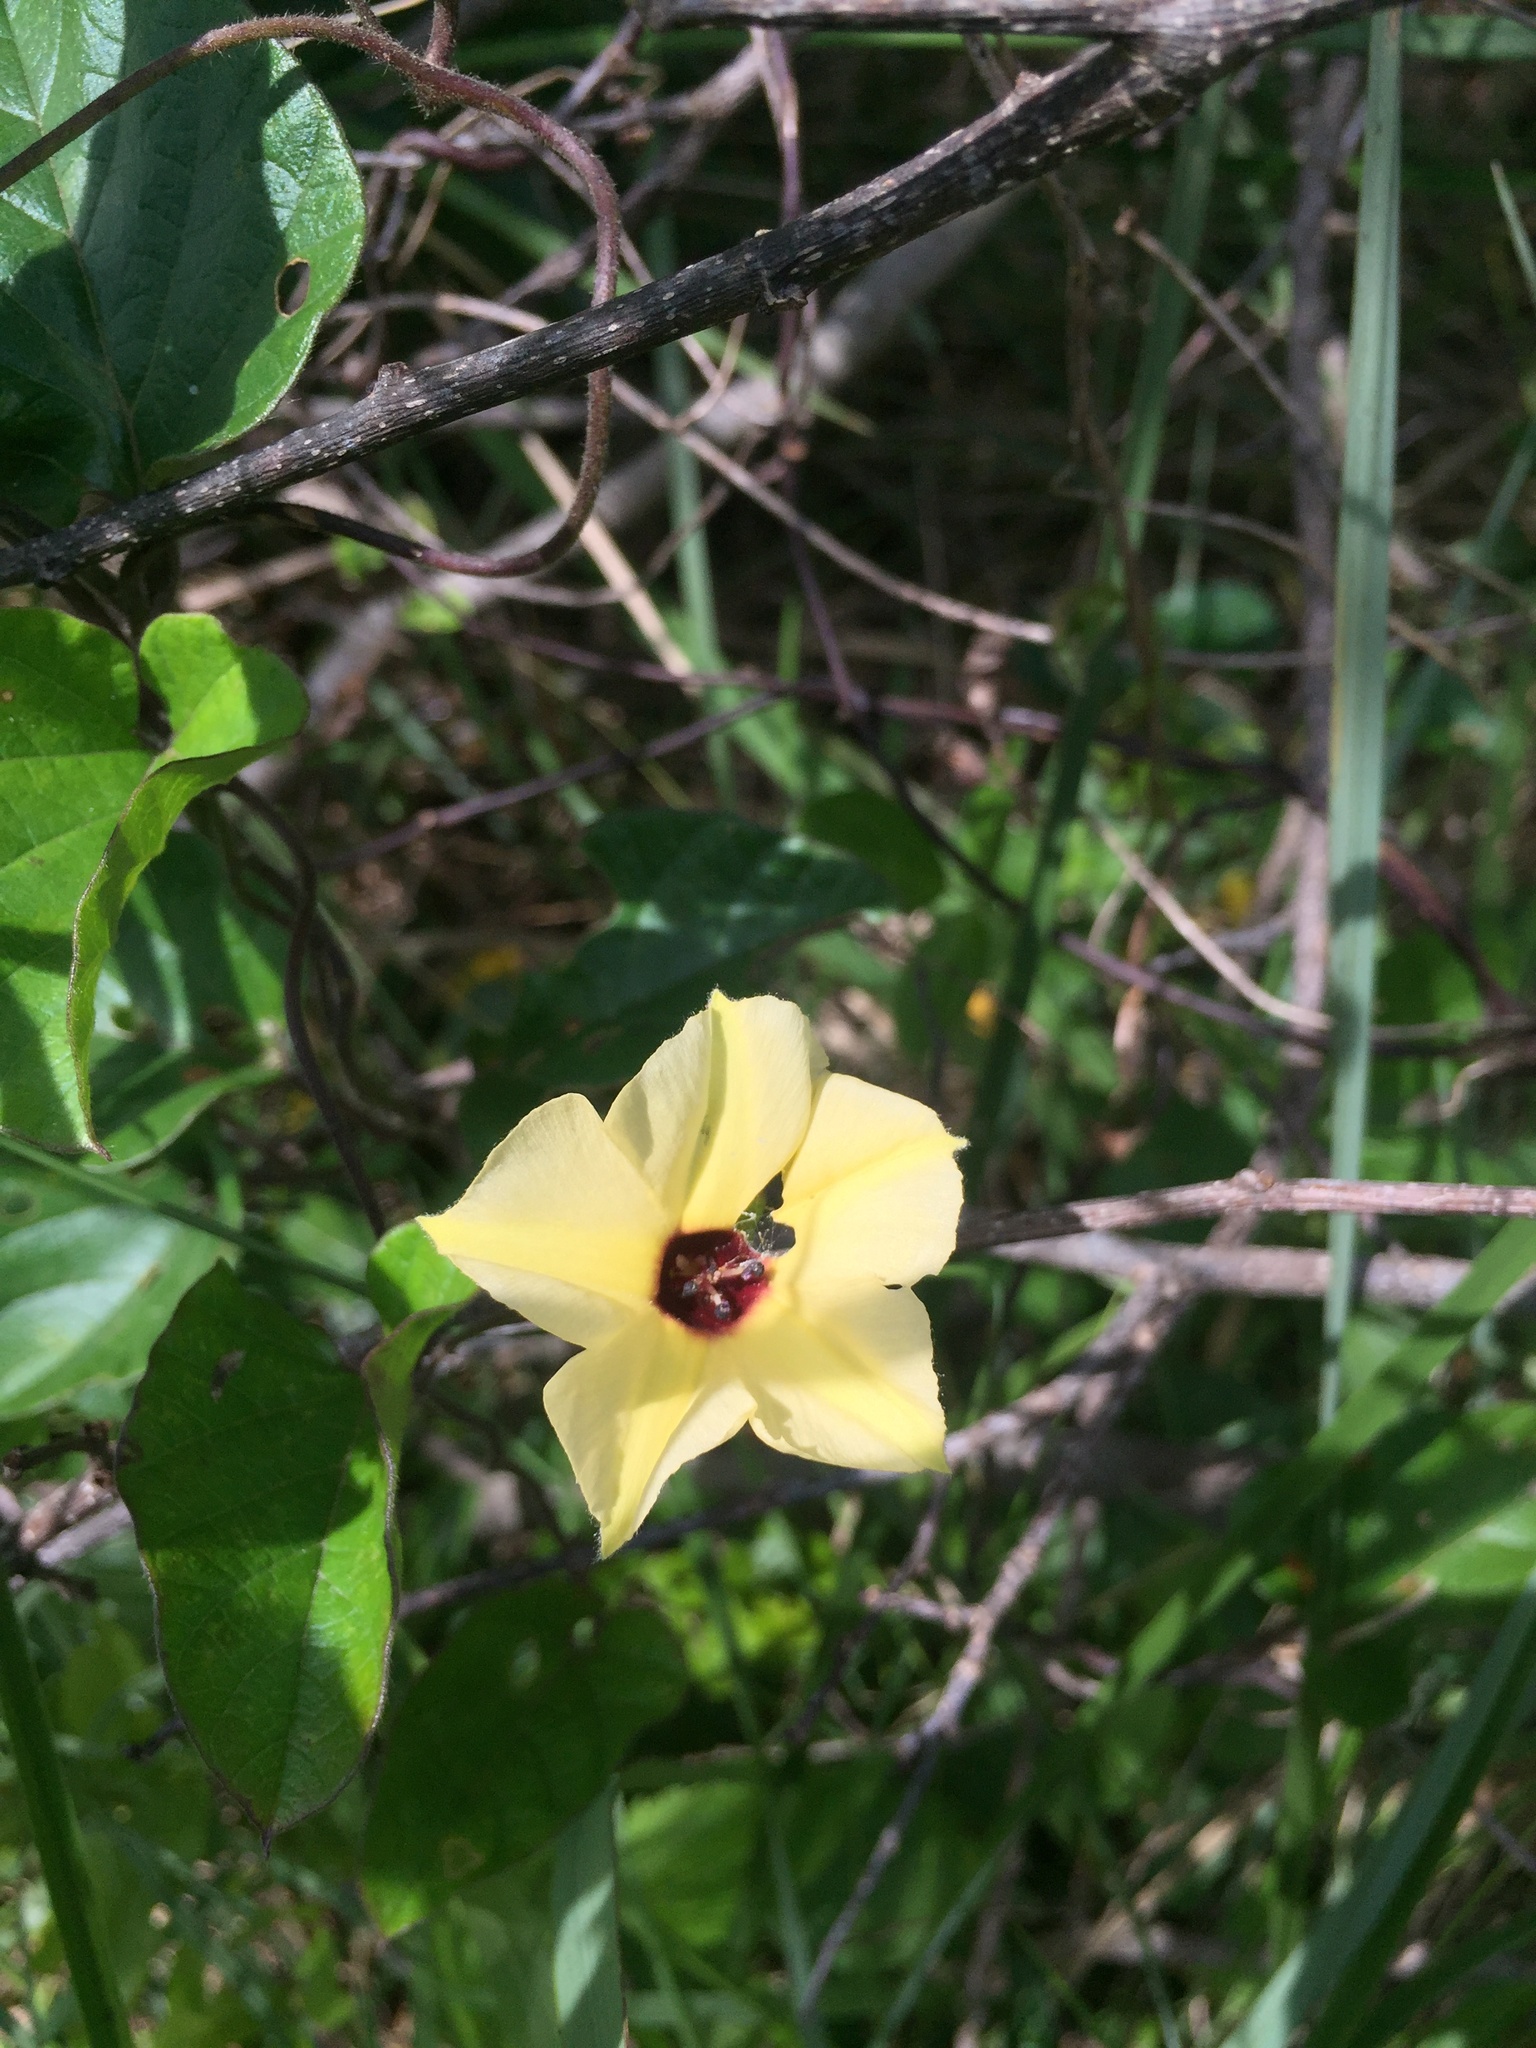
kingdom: Plantae
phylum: Tracheophyta
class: Magnoliopsida
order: Solanales
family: Convolvulaceae
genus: Hewittia
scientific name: Hewittia malabarica
